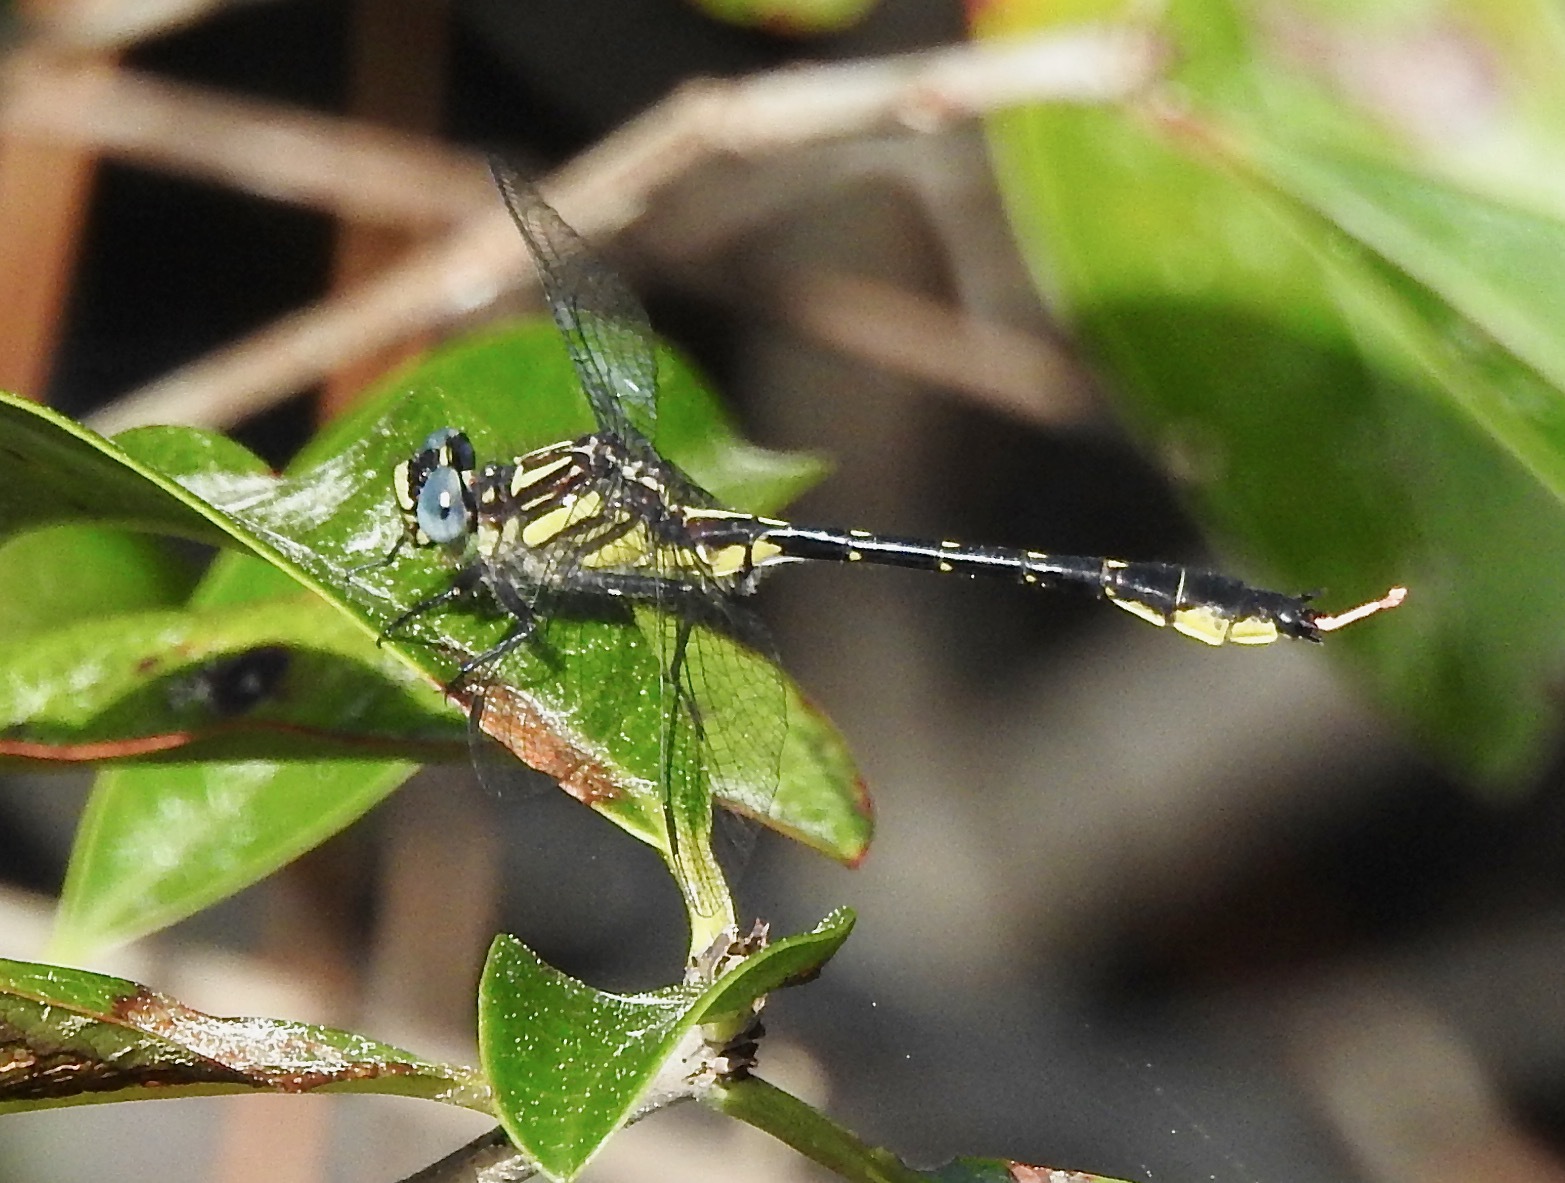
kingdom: Animalia
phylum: Arthropoda
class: Insecta
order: Odonata
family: Gomphidae
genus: Hylogomphus
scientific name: Hylogomphus geminatus
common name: Twin-striped clubtail
